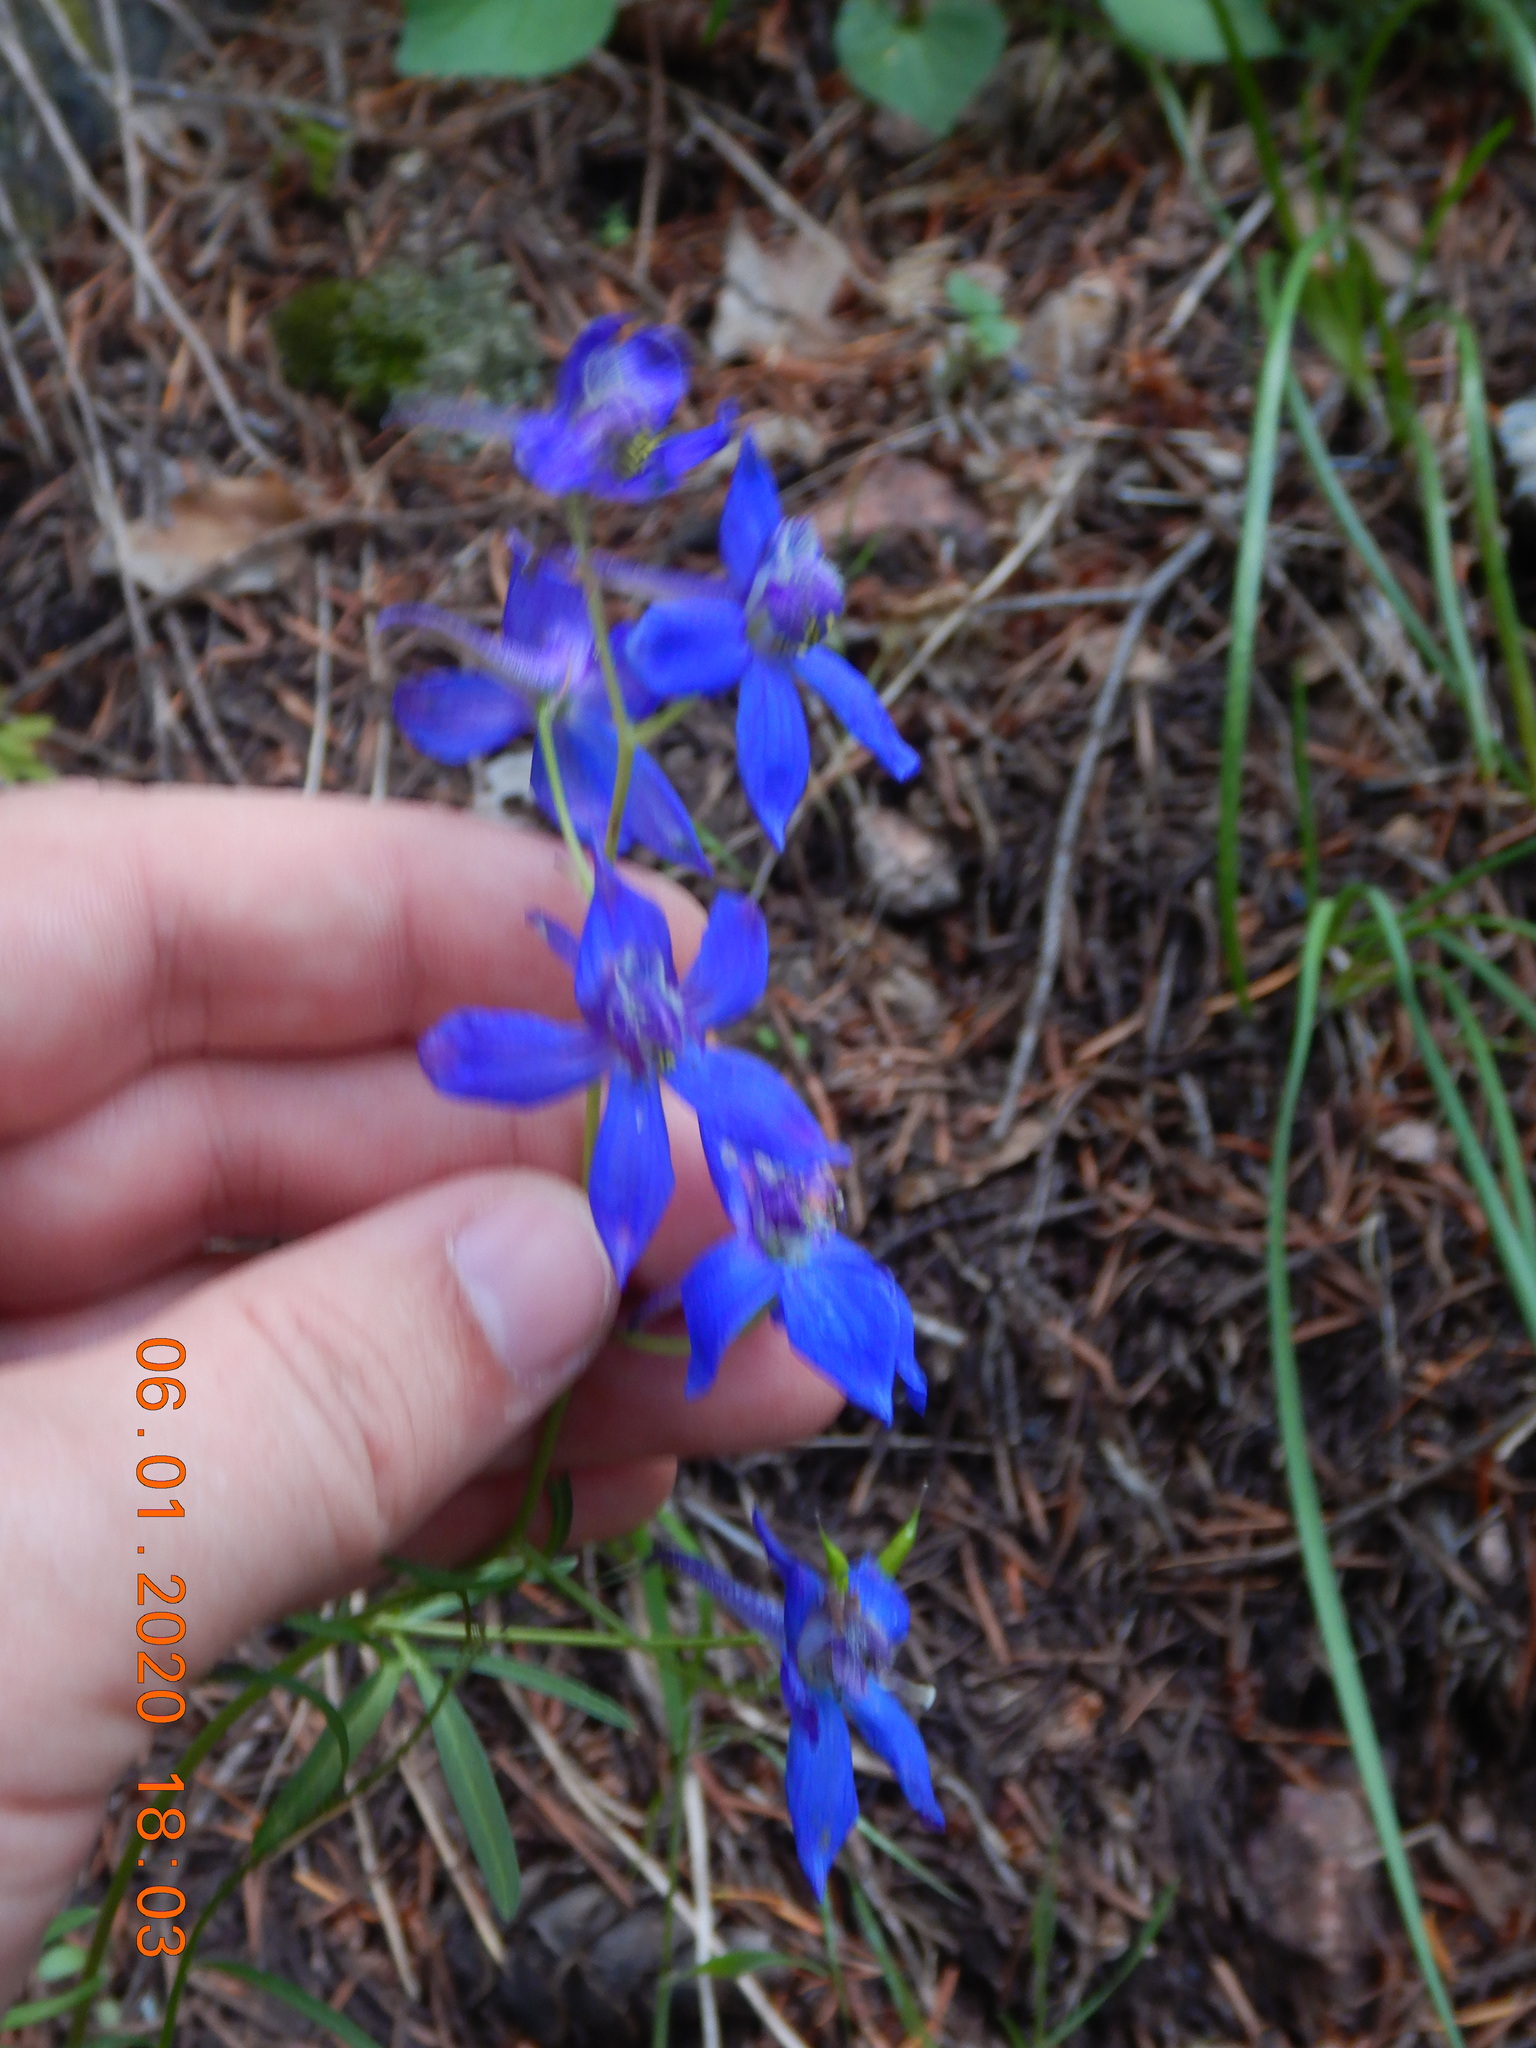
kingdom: Plantae
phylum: Tracheophyta
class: Magnoliopsida
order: Ranunculales
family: Ranunculaceae
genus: Delphinium
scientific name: Delphinium nuttallianum
